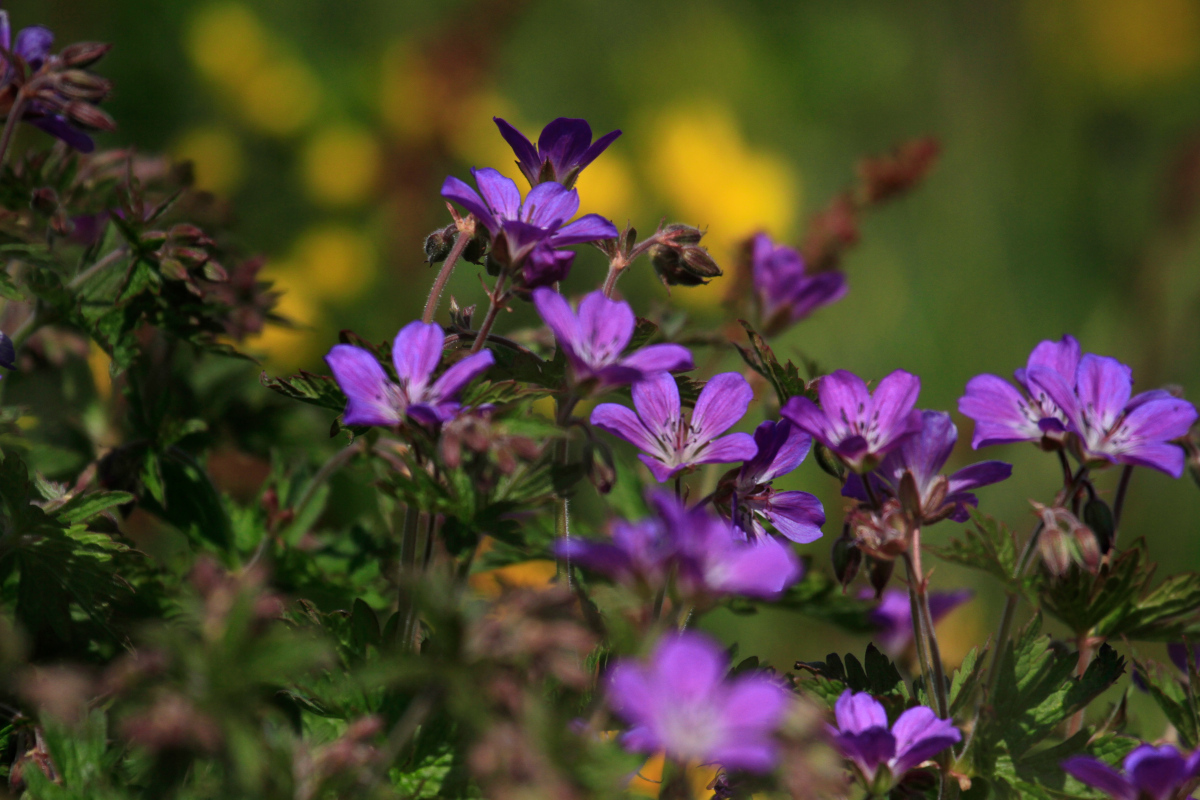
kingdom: Plantae
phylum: Tracheophyta
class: Magnoliopsida
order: Geraniales
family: Geraniaceae
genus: Geranium
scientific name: Geranium sylvaticum
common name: Wood crane's-bill
